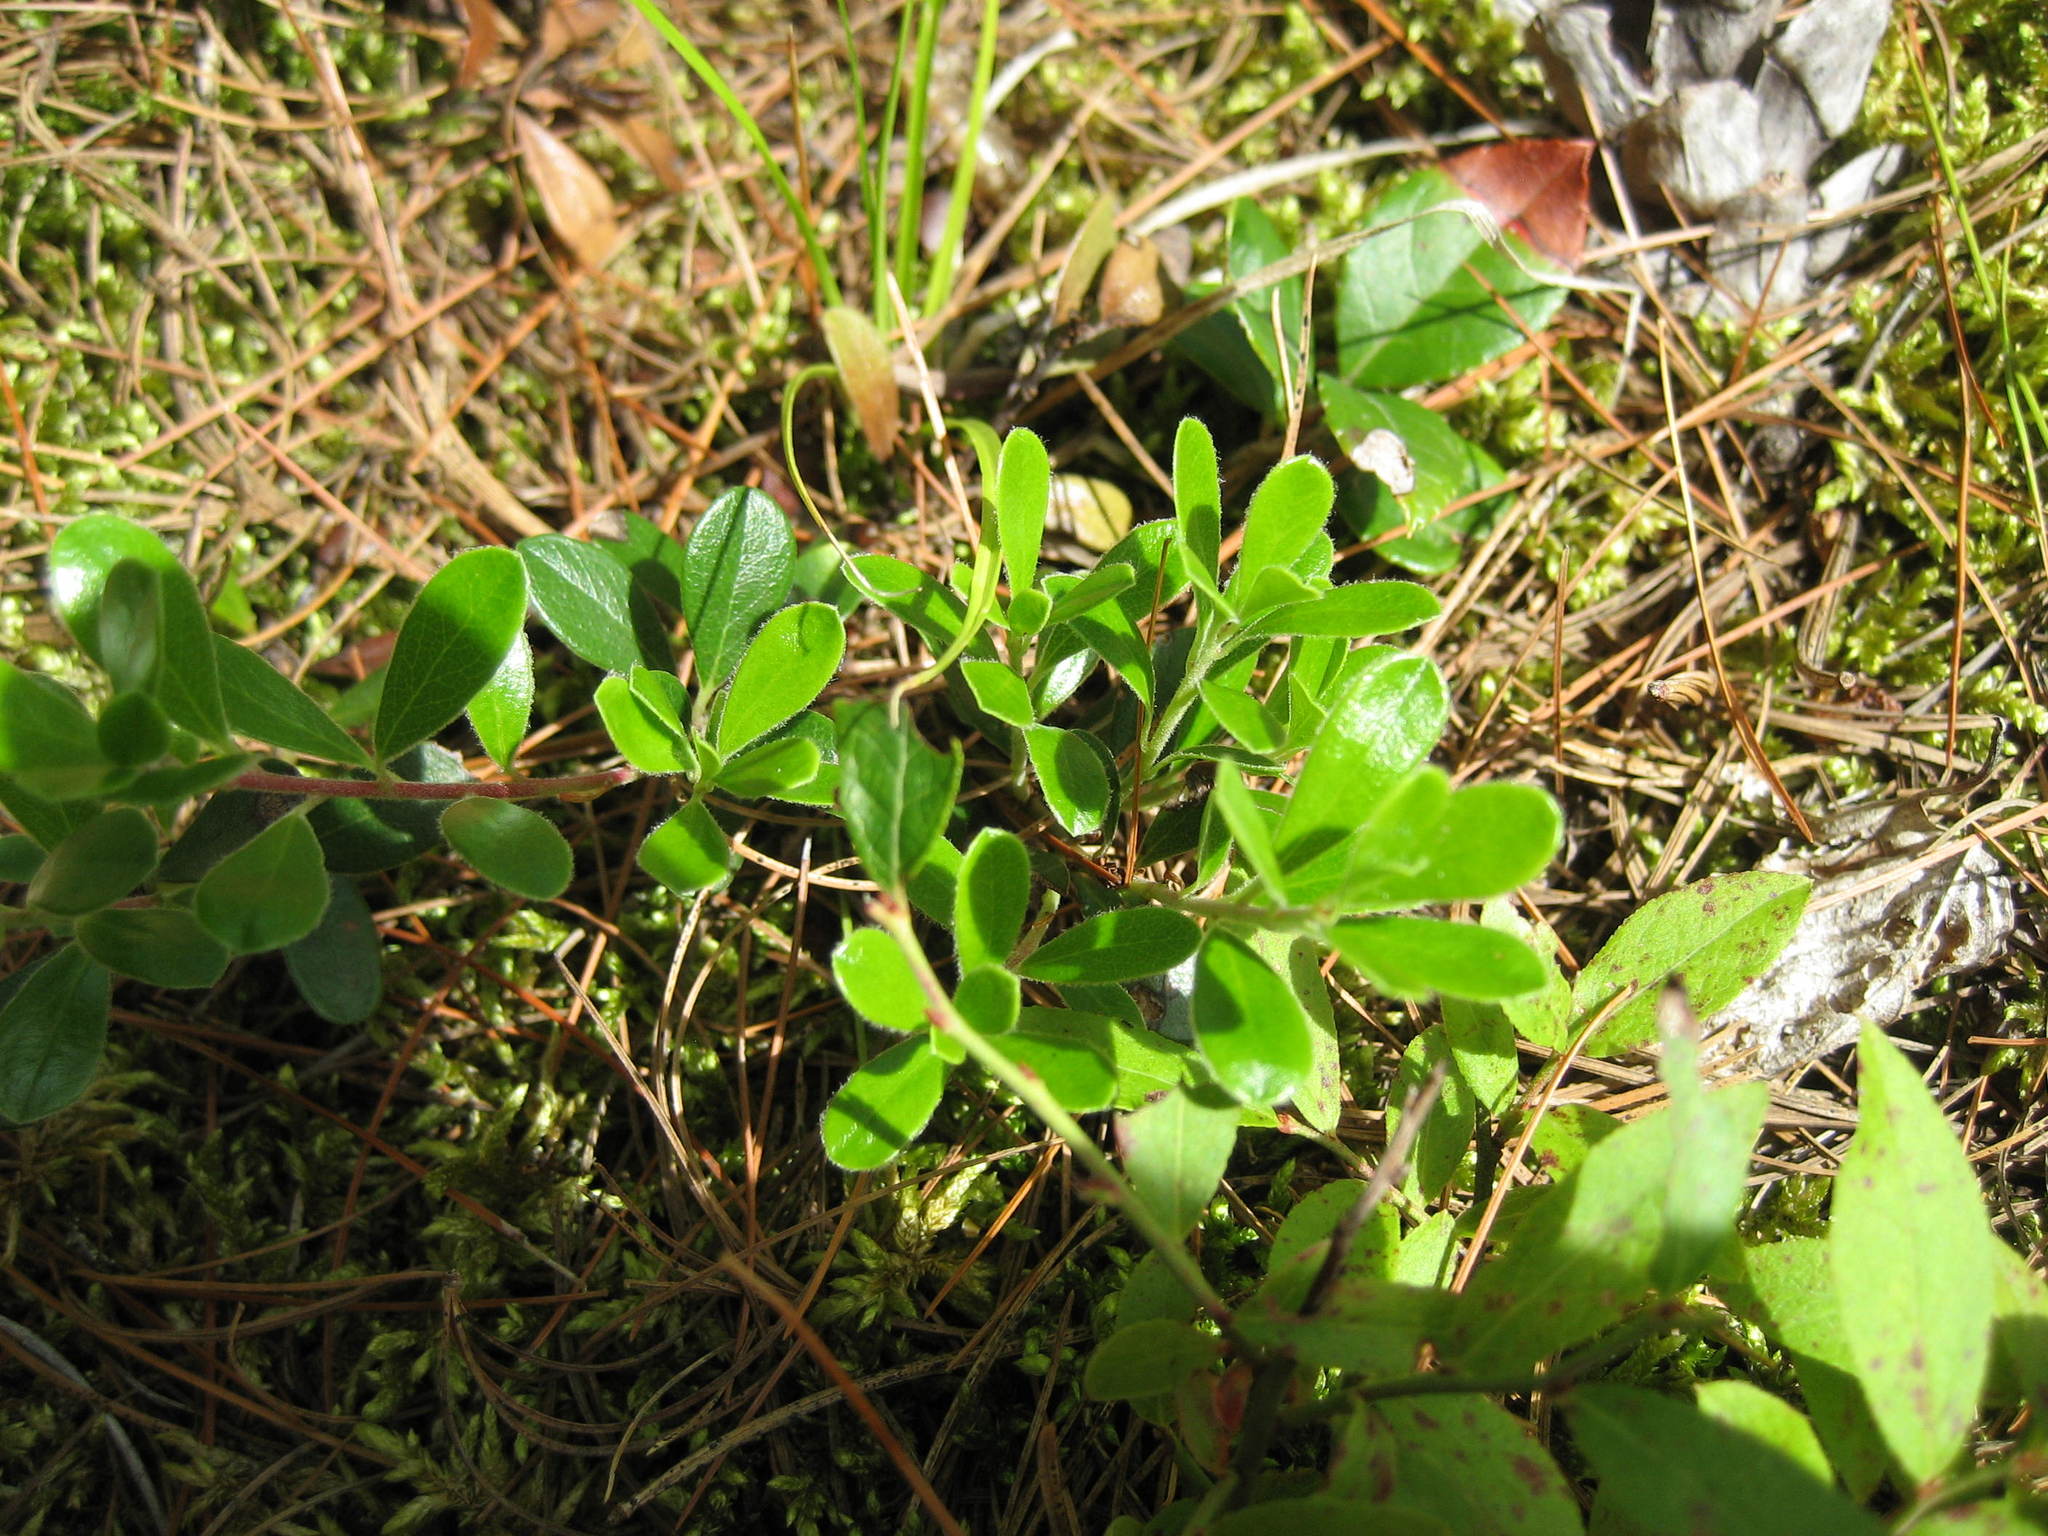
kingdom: Plantae
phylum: Tracheophyta
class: Magnoliopsida
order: Ericales
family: Ericaceae
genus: Arctostaphylos
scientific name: Arctostaphylos uva-ursi
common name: Bearberry
